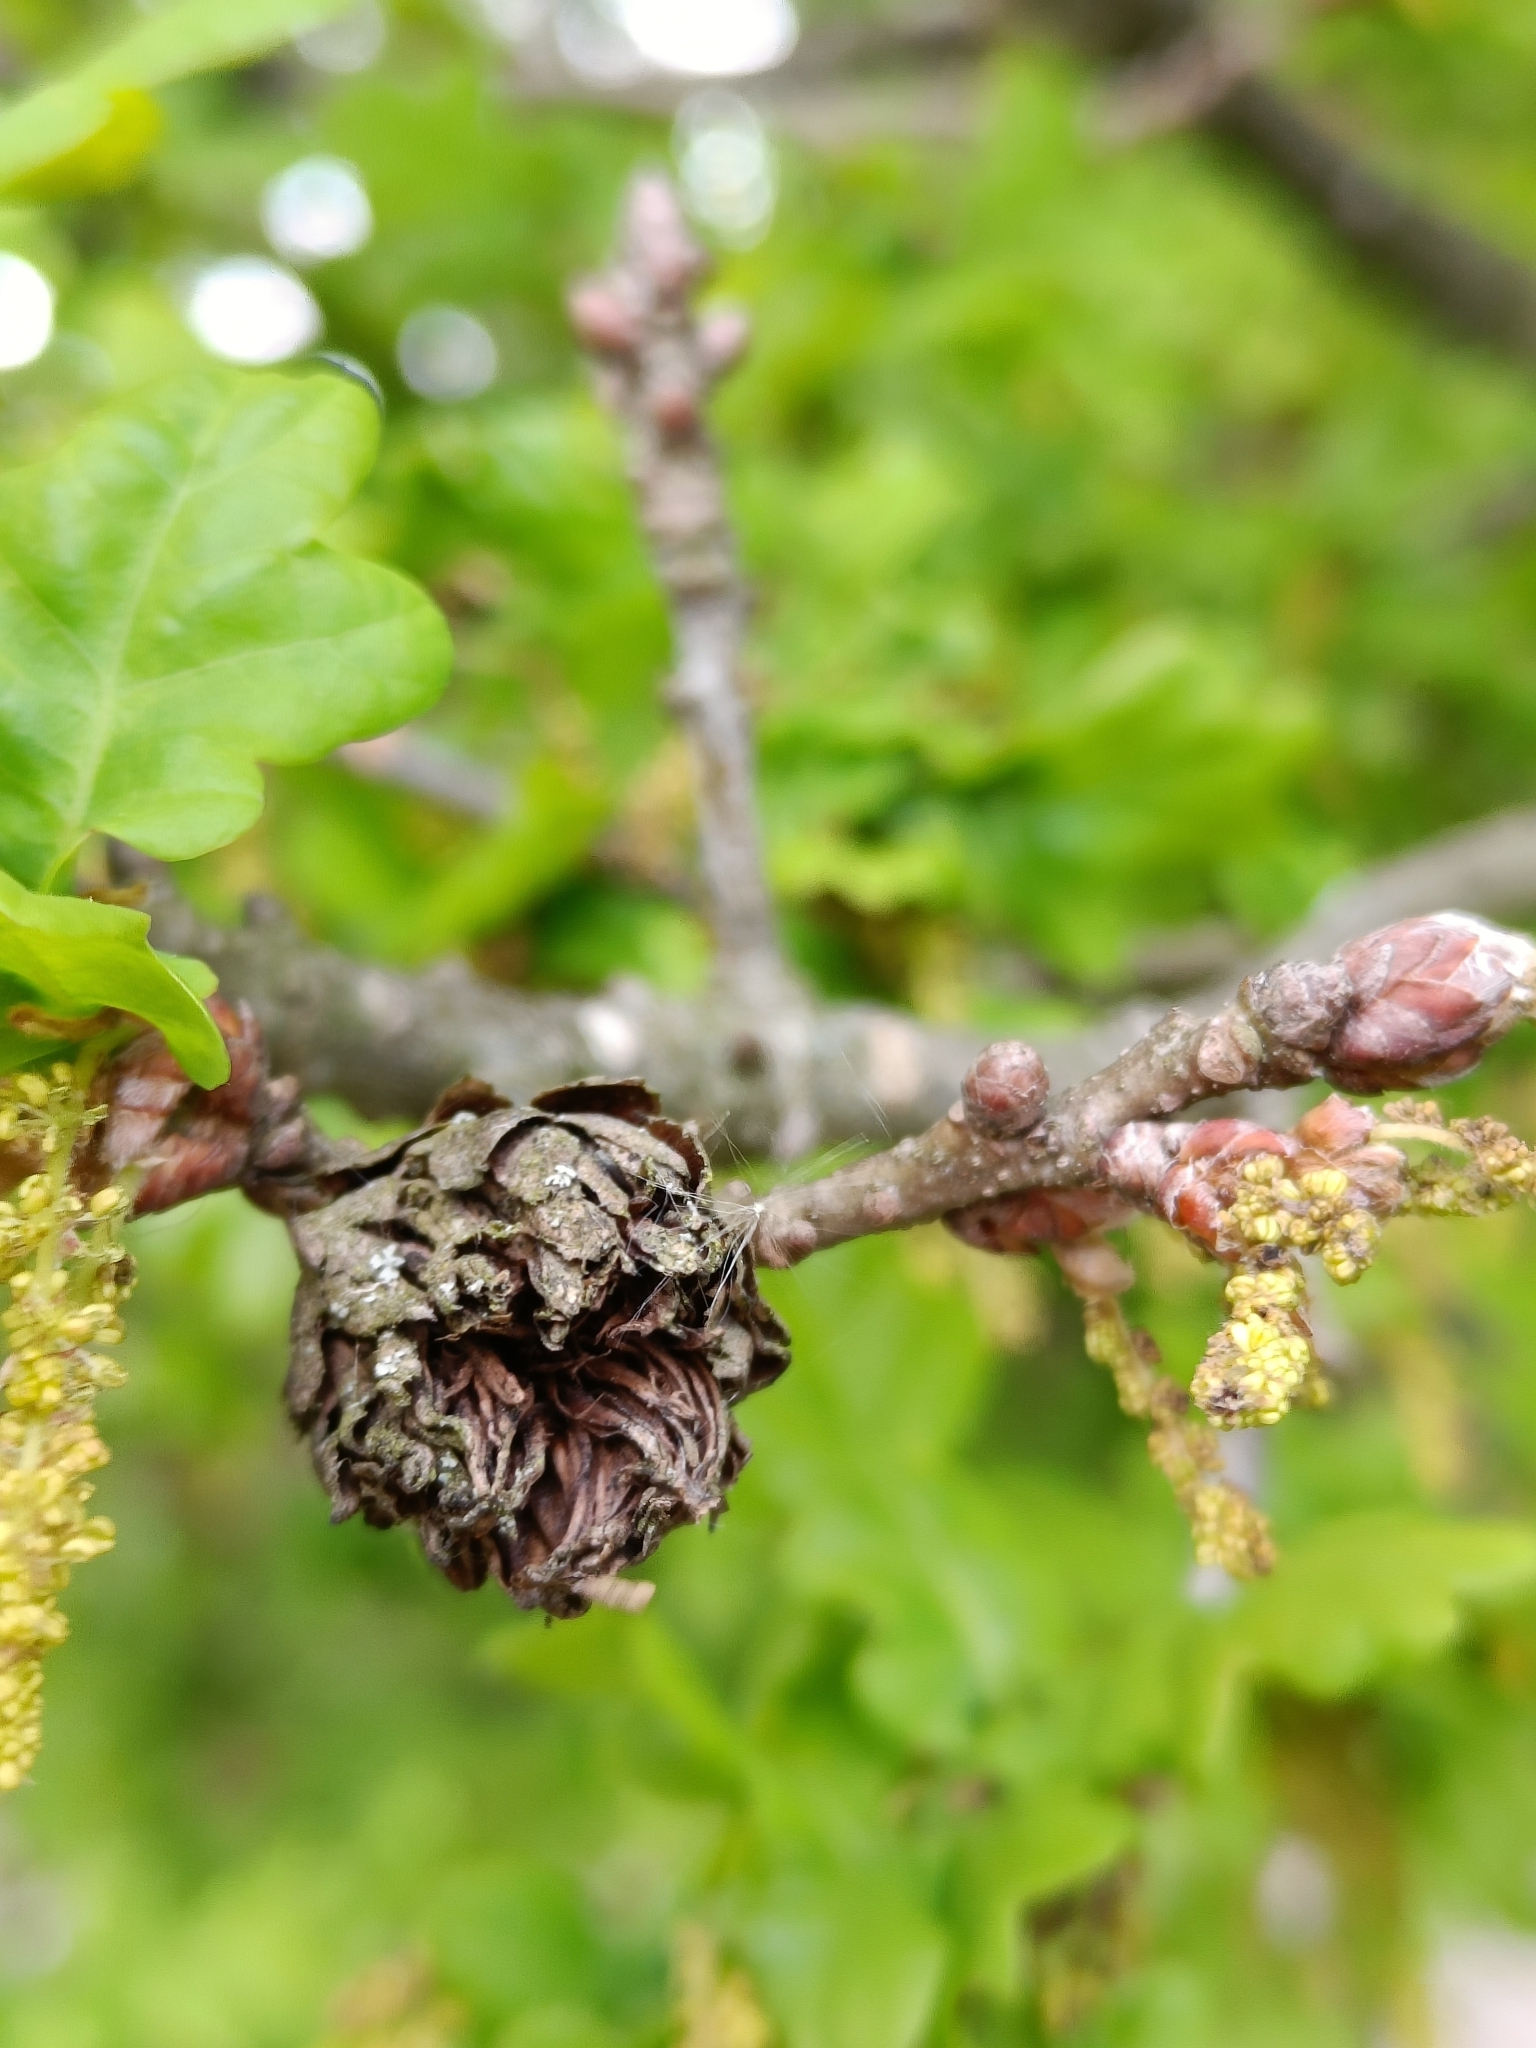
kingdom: Animalia
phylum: Arthropoda
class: Insecta
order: Hymenoptera
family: Cynipidae
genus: Andricus
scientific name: Andricus foecundatrix
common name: Artichoke gall
